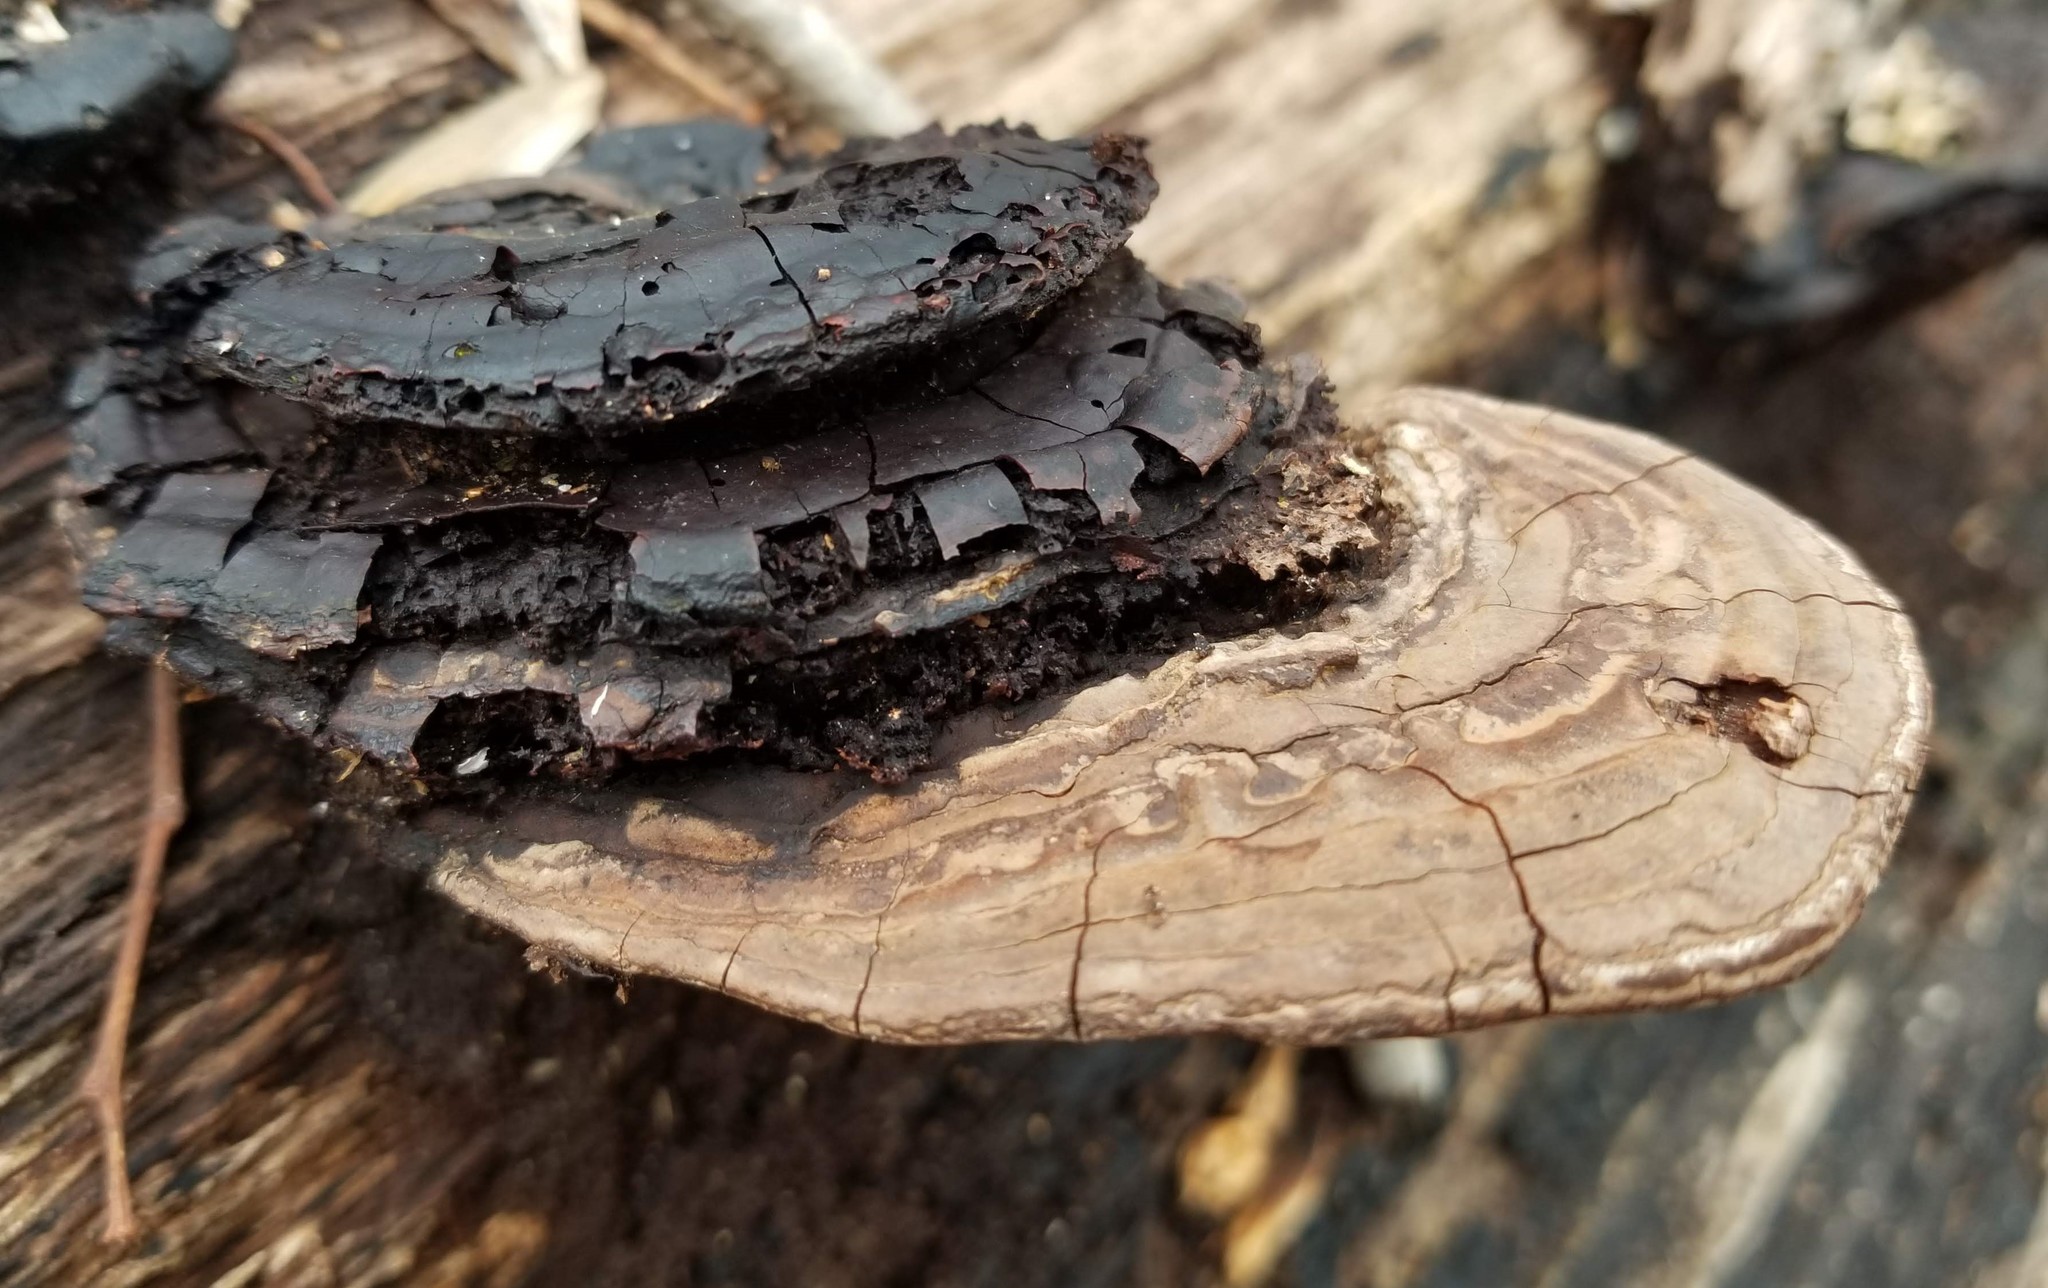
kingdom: Fungi
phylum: Basidiomycota
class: Agaricomycetes
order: Polyporales
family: Polyporaceae
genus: Ganoderma
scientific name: Ganoderma lobatum
